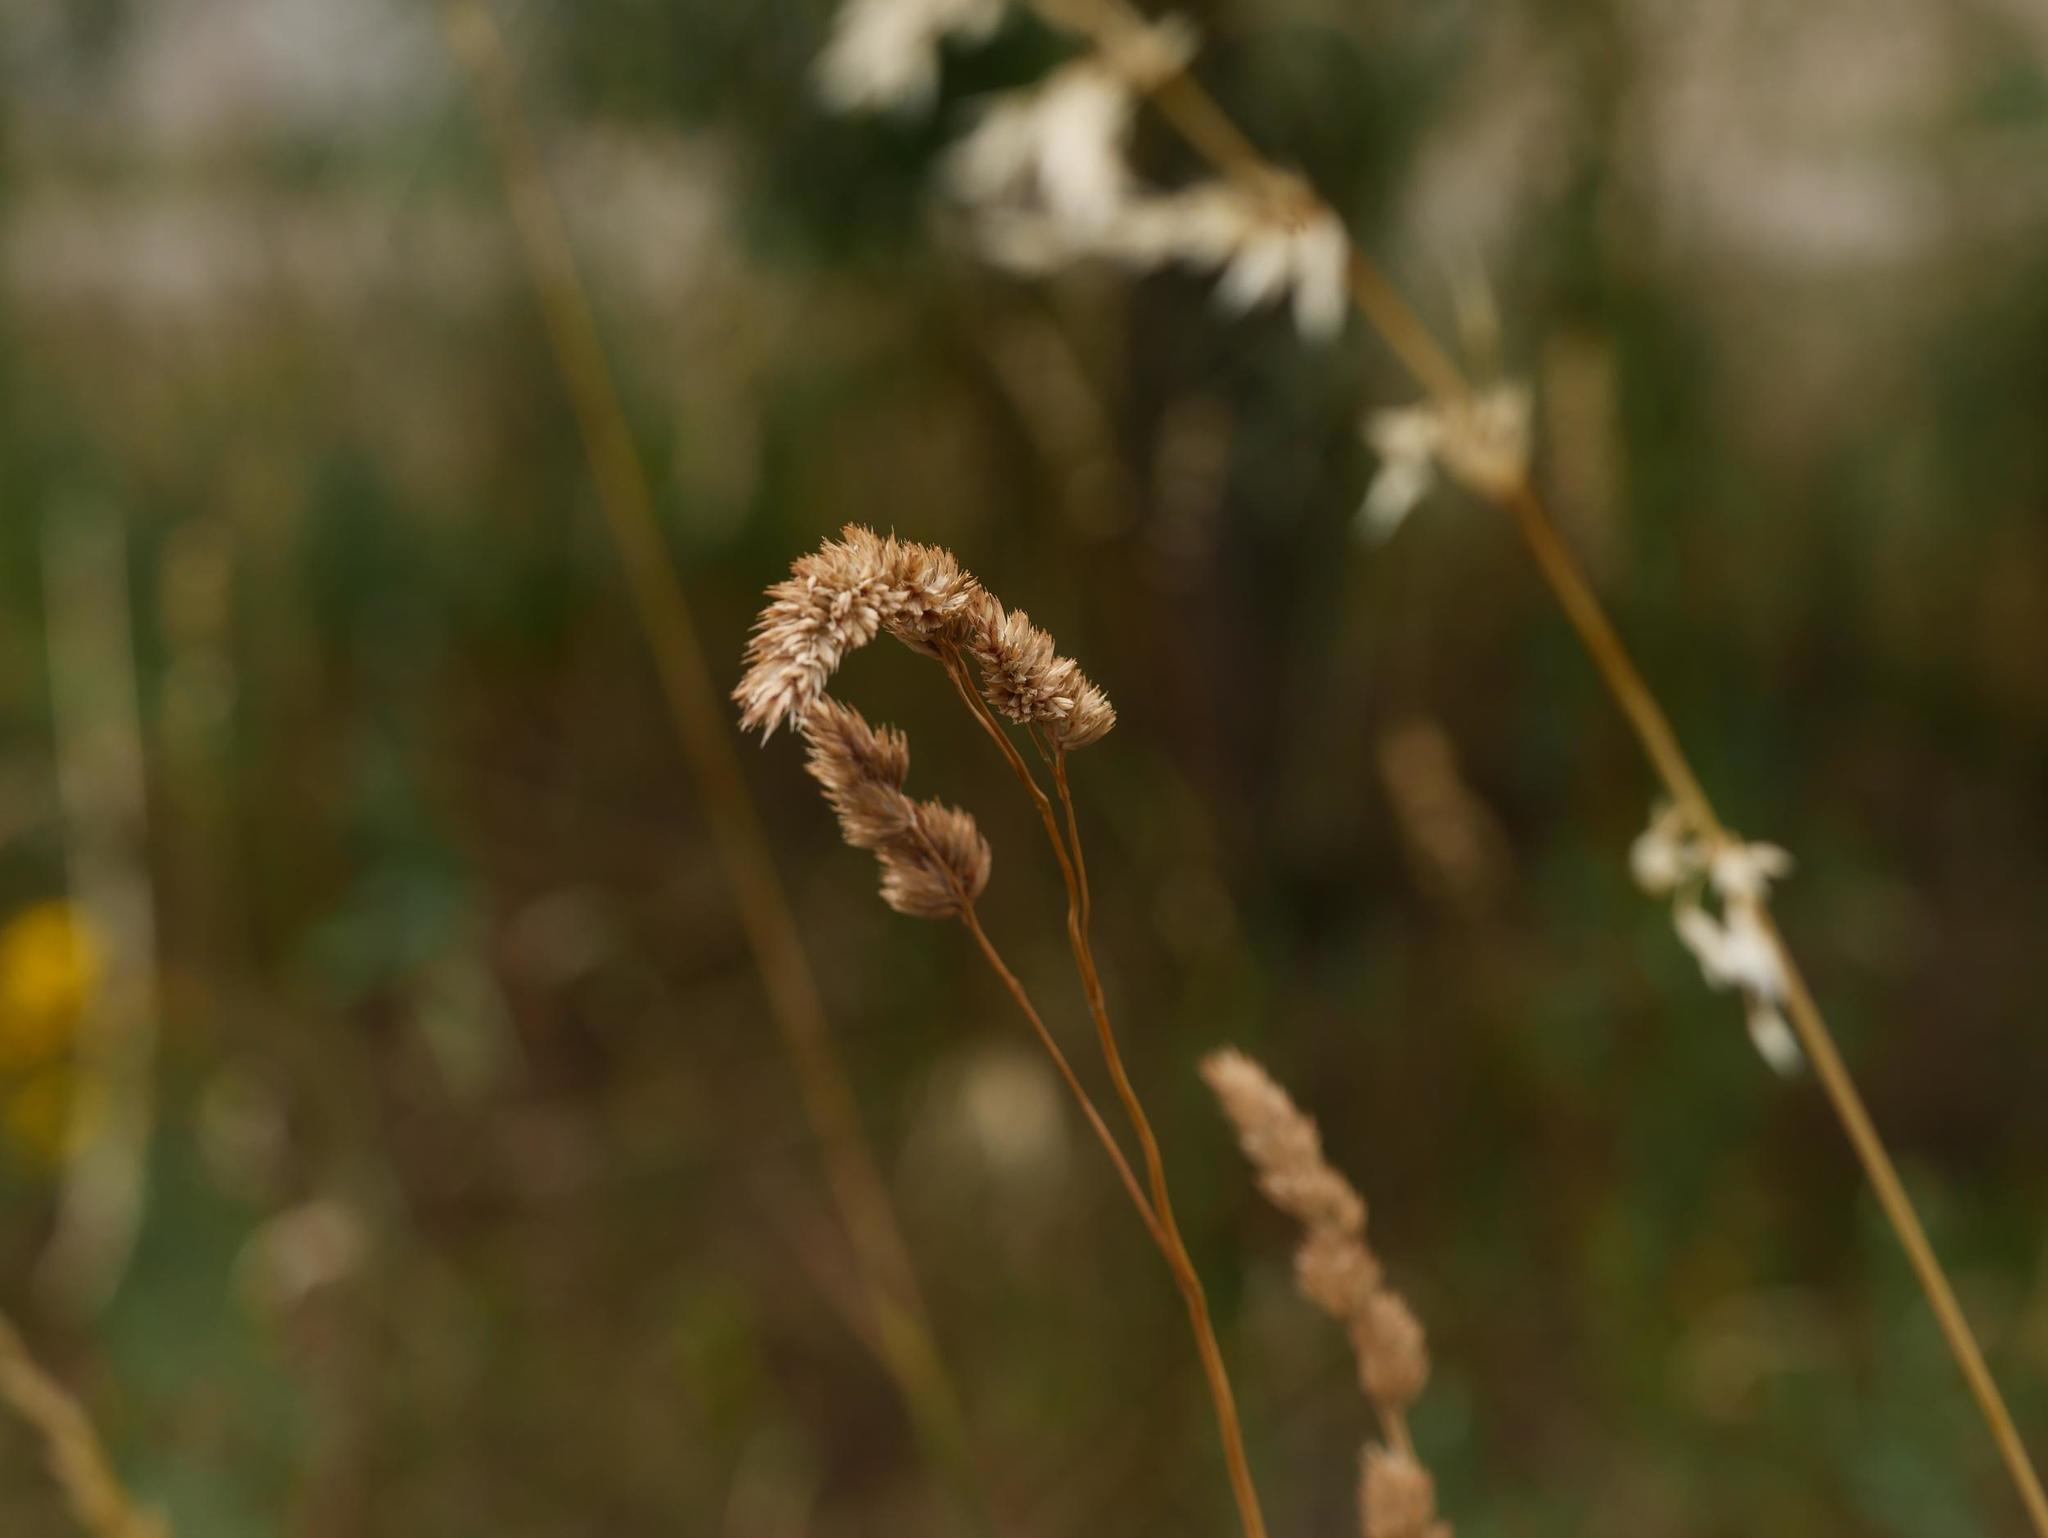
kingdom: Plantae
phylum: Tracheophyta
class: Liliopsida
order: Poales
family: Poaceae
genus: Dactylis
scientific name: Dactylis glomerata
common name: Orchardgrass
